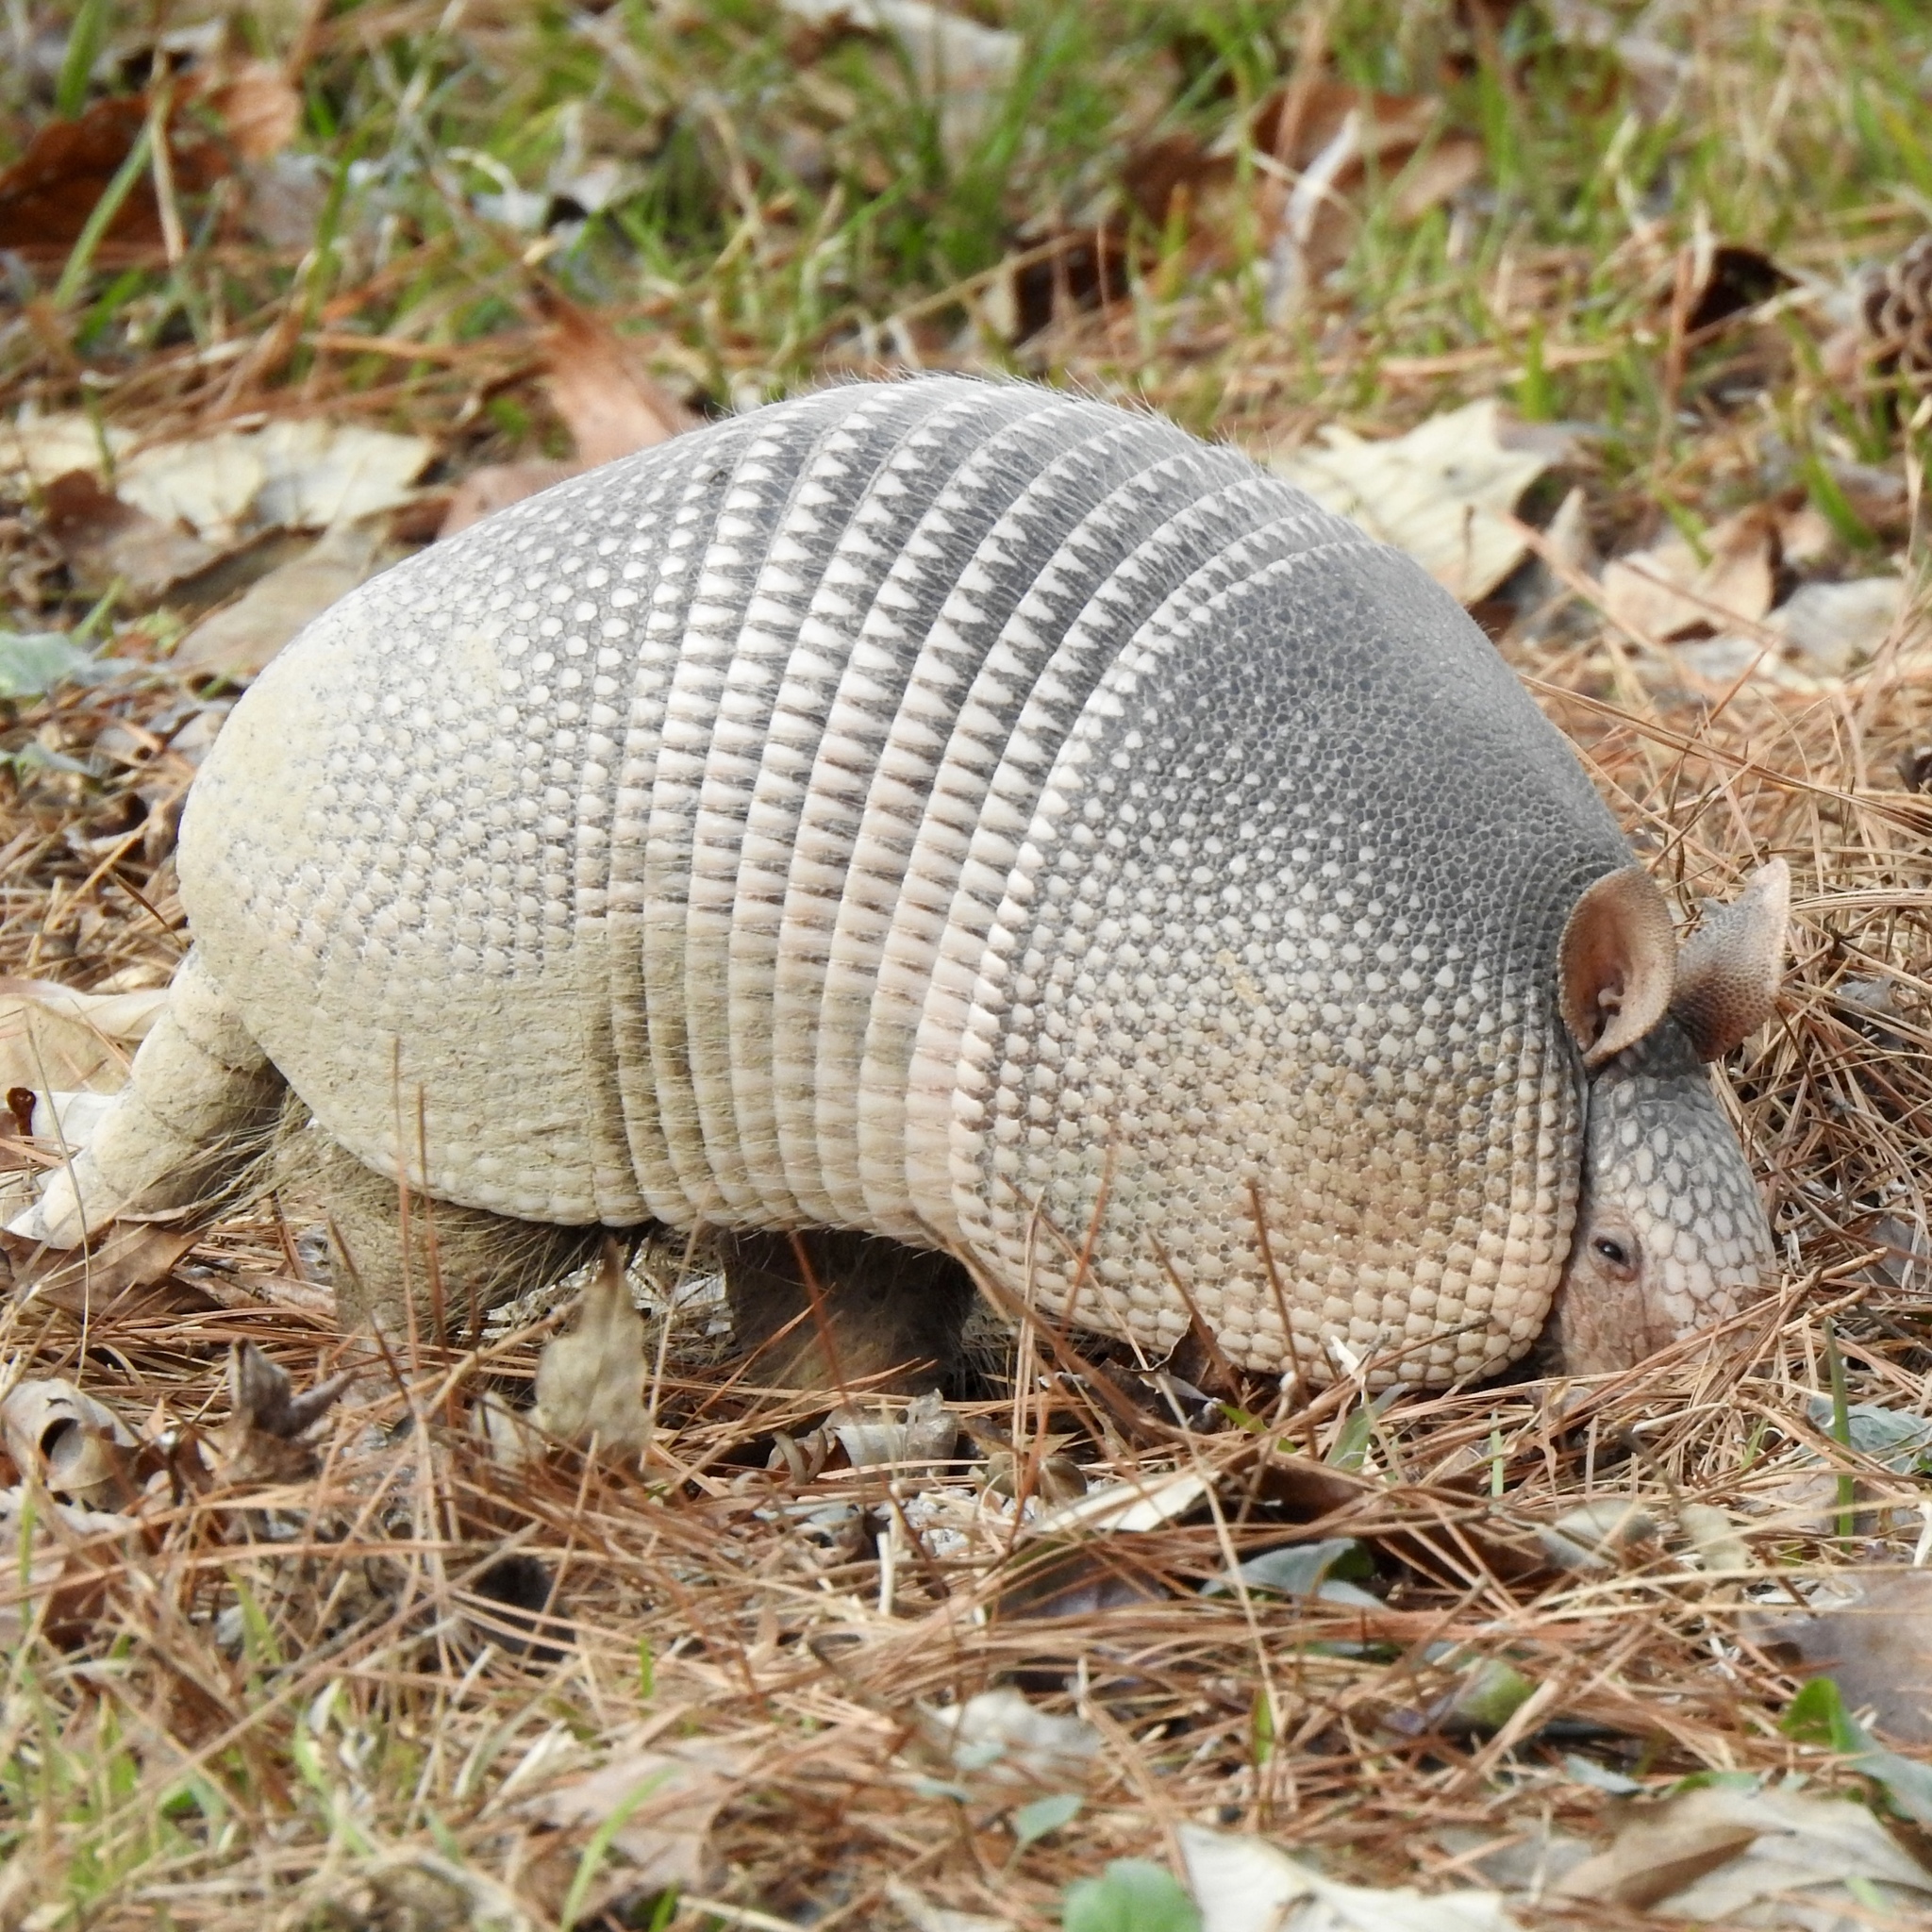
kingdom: Animalia
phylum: Chordata
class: Mammalia
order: Cingulata
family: Dasypodidae
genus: Dasypus
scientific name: Dasypus novemcinctus
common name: Nine-banded armadillo
